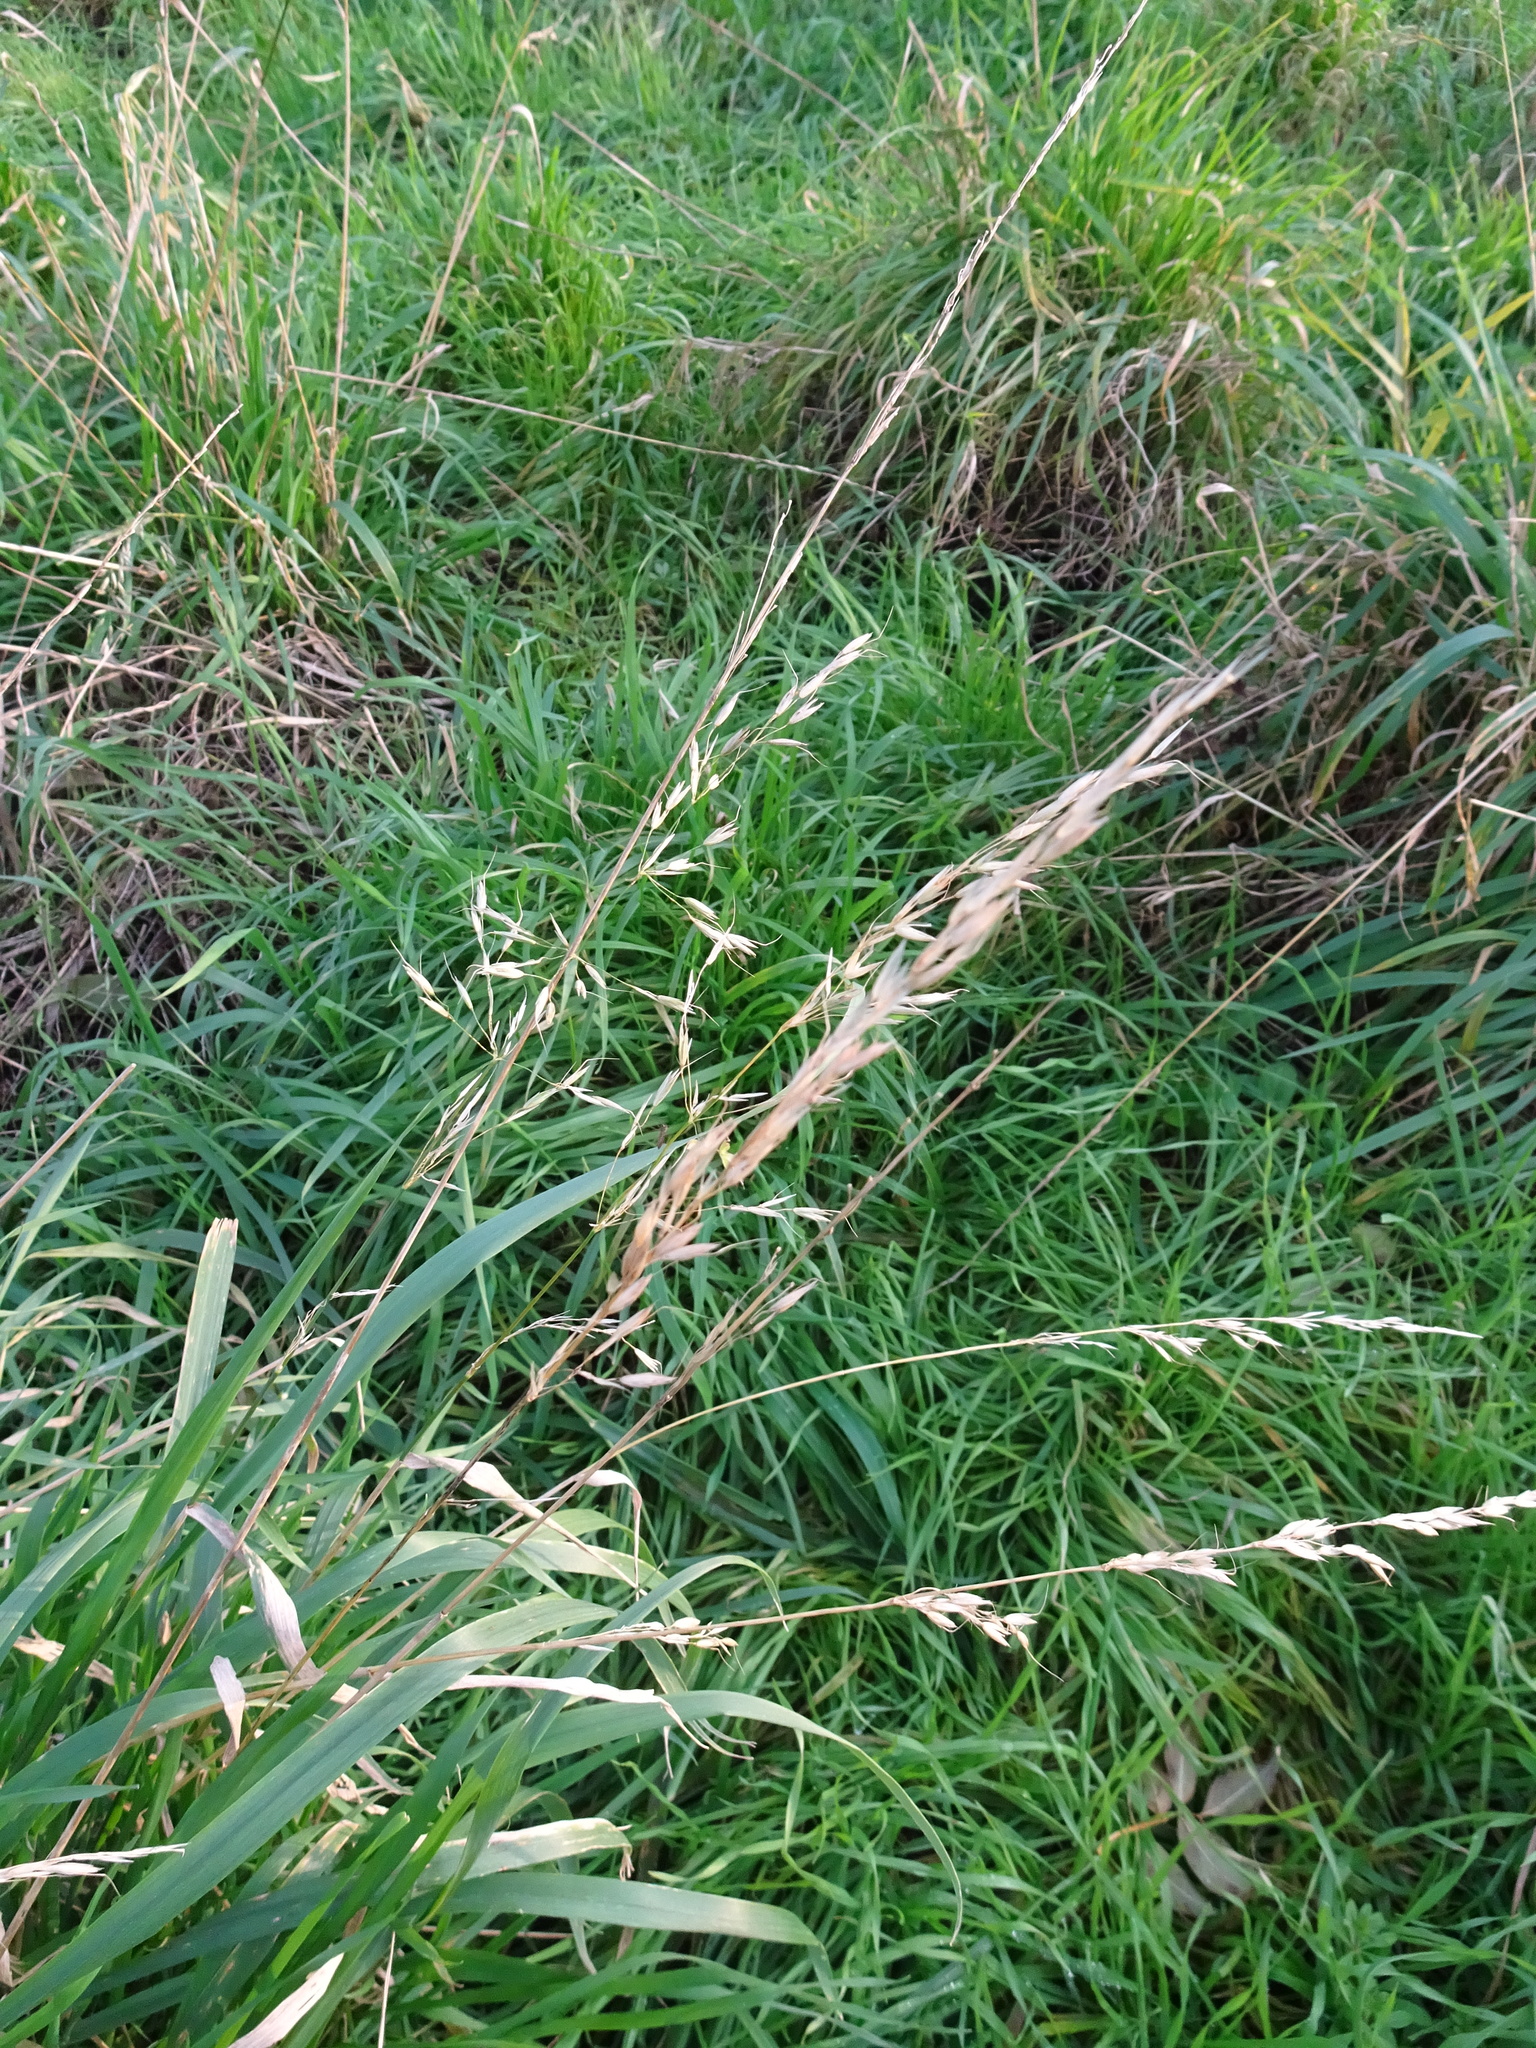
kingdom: Plantae
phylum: Tracheophyta
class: Liliopsida
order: Poales
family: Poaceae
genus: Arrhenatherum
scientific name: Arrhenatherum elatius
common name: Tall oatgrass
